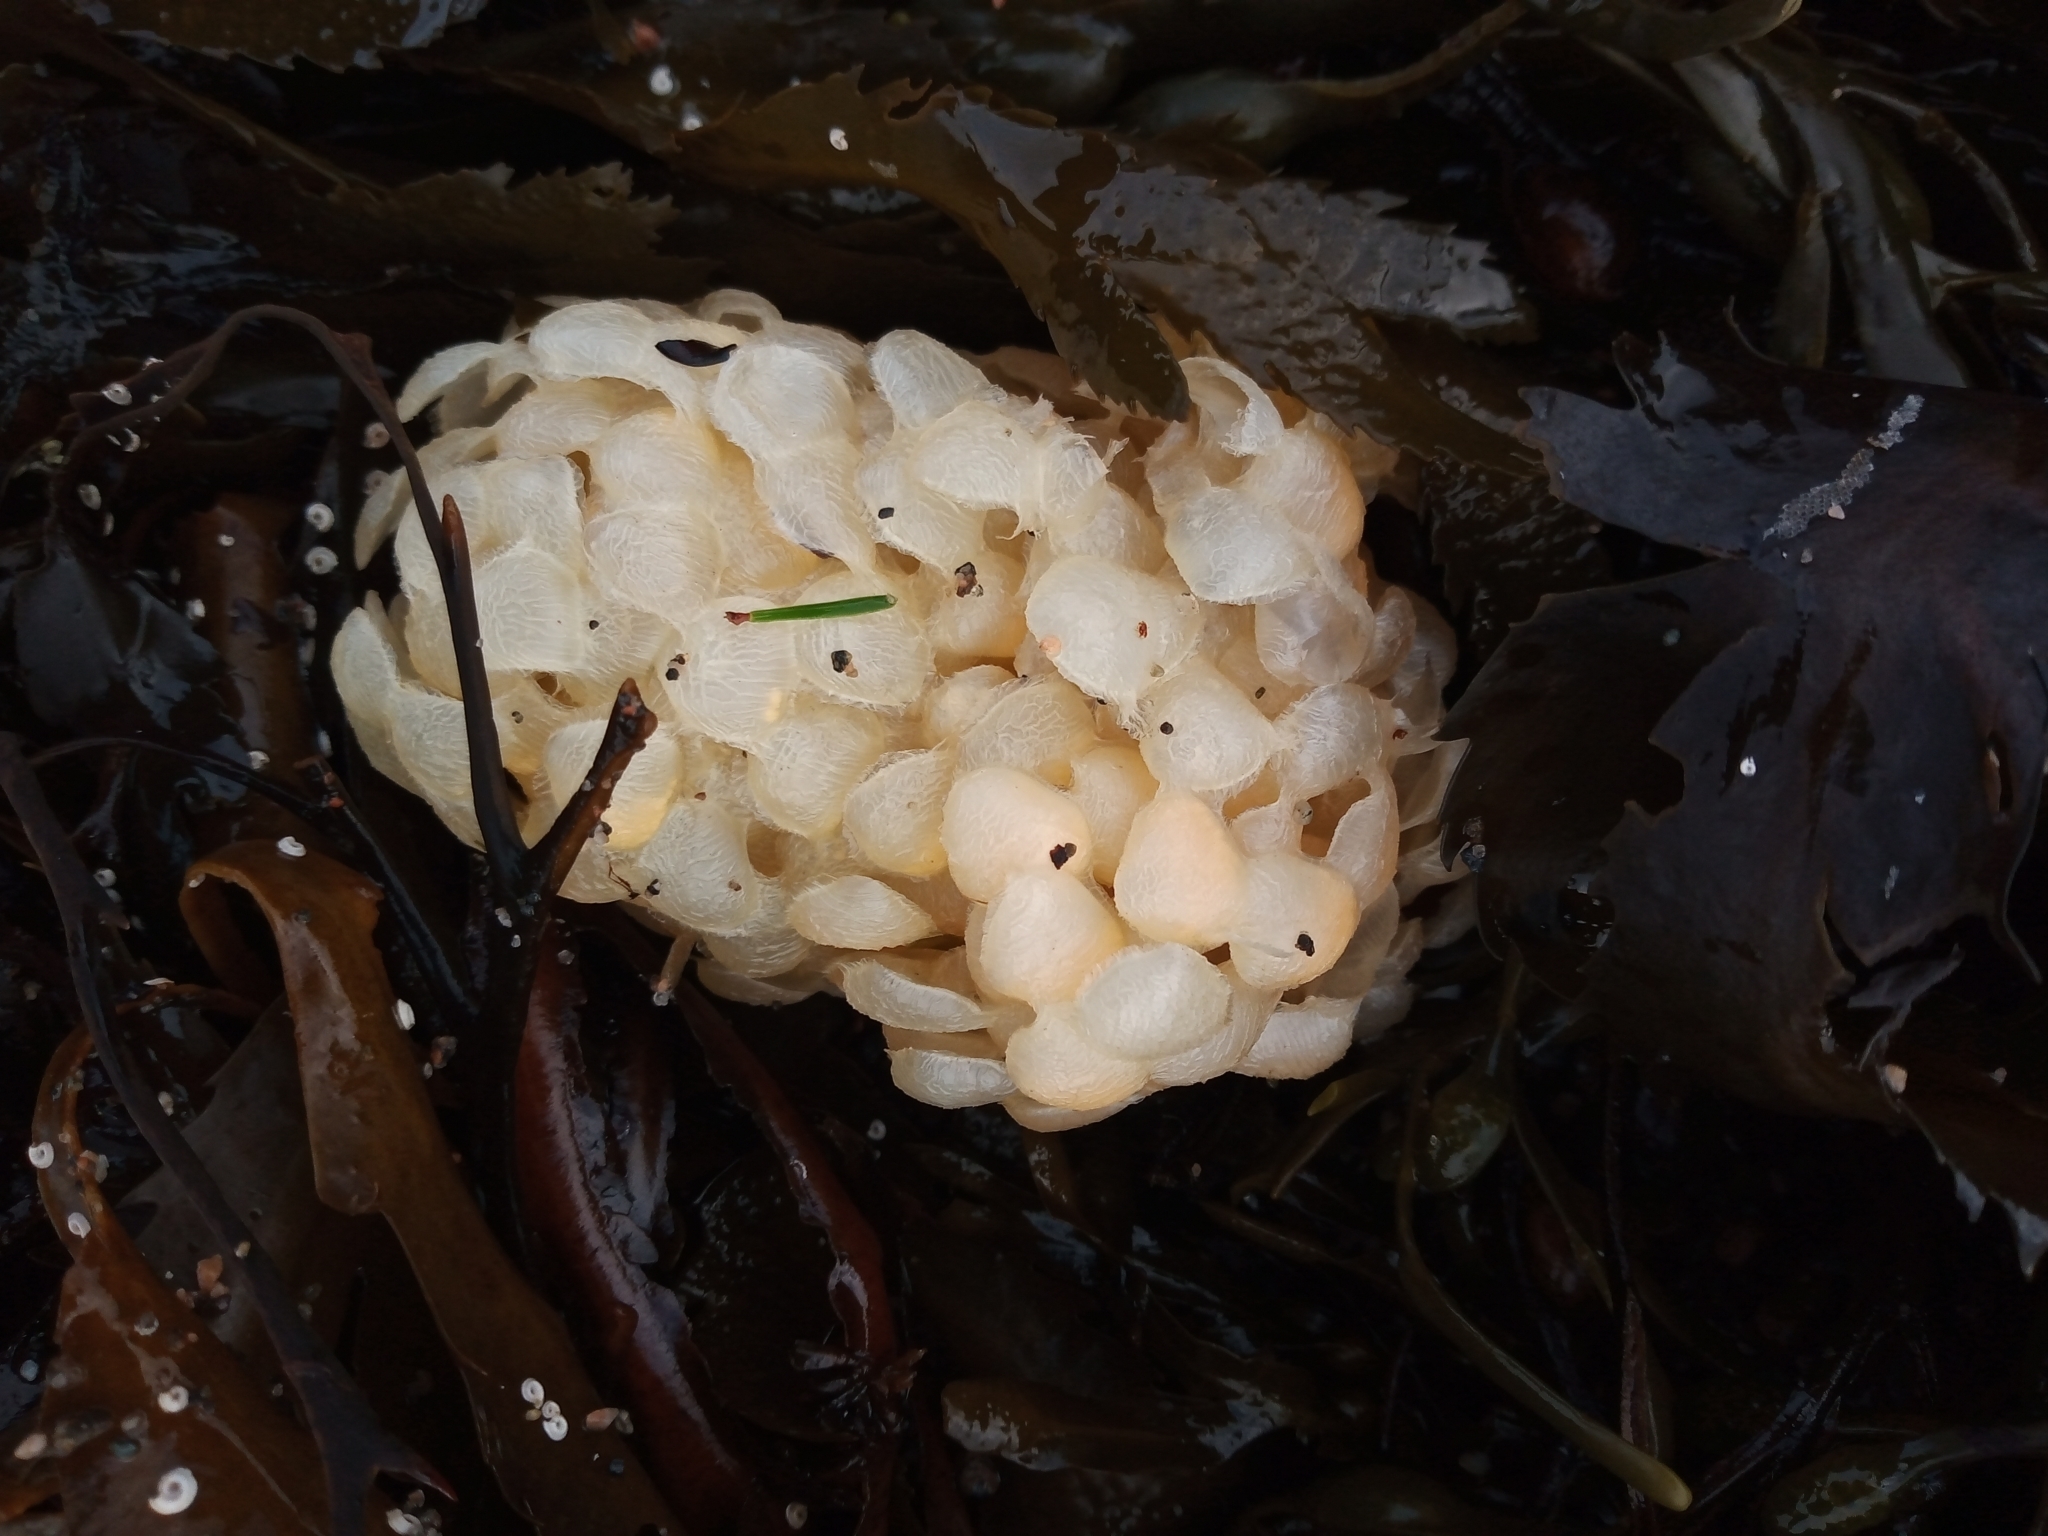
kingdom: Animalia
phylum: Mollusca
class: Gastropoda
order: Neogastropoda
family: Buccinidae
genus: Buccinum
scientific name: Buccinum undatum
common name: Common whelk
